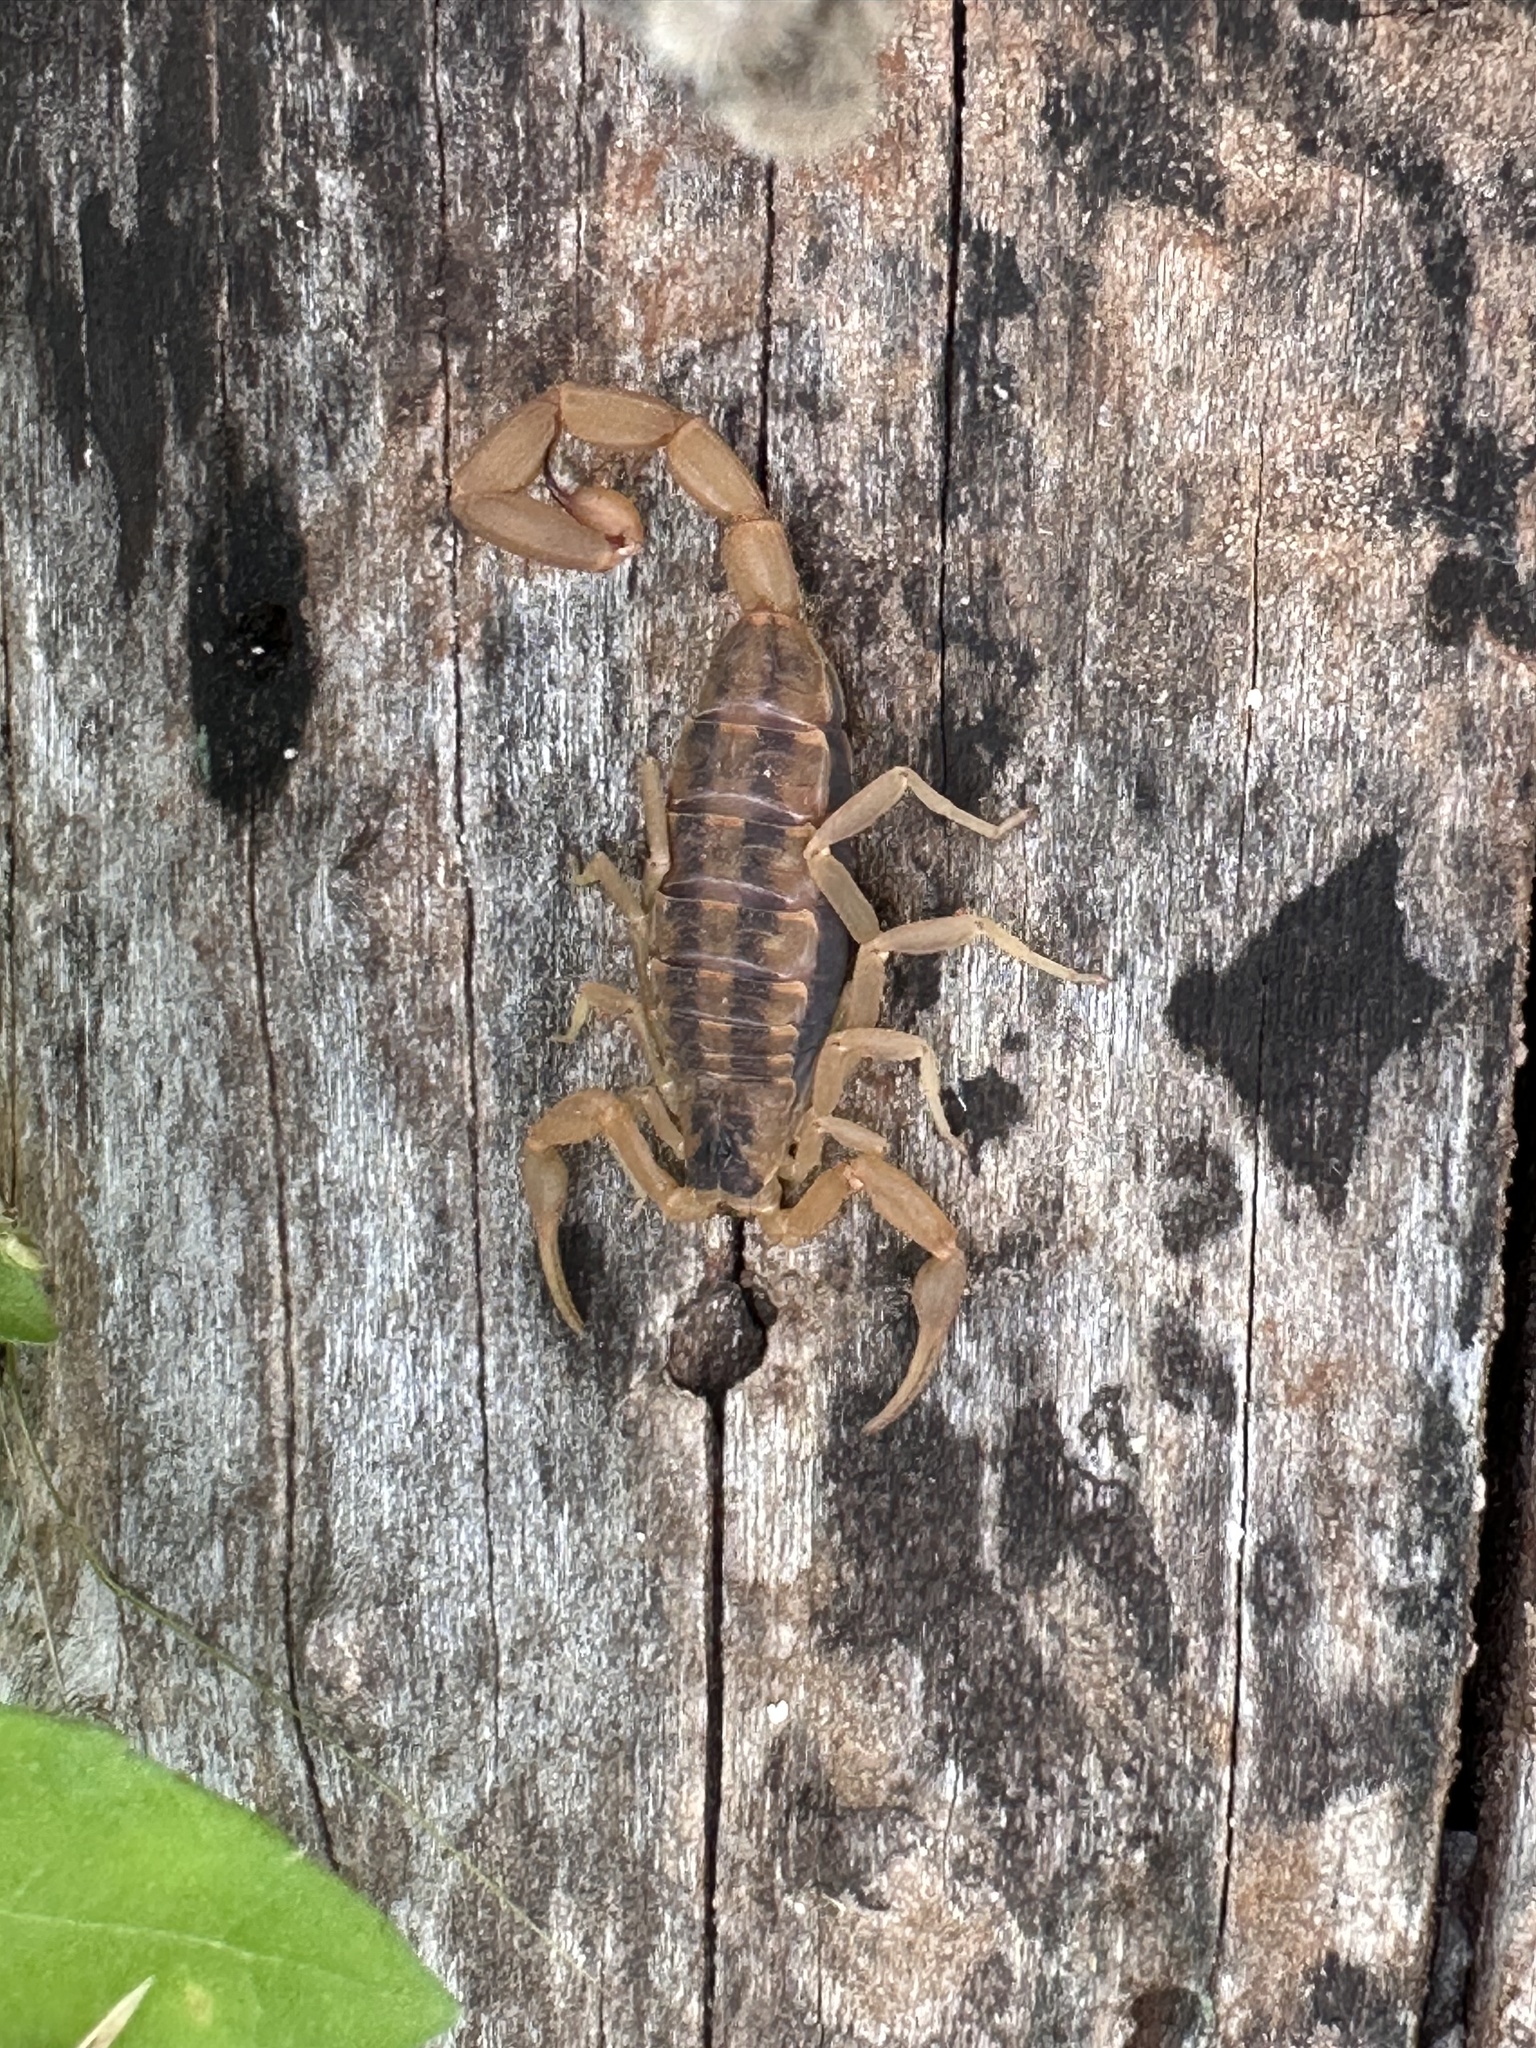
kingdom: Animalia
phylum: Arthropoda
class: Arachnida
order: Scorpiones
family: Buthidae
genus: Centruroides
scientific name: Centruroides vittatus
